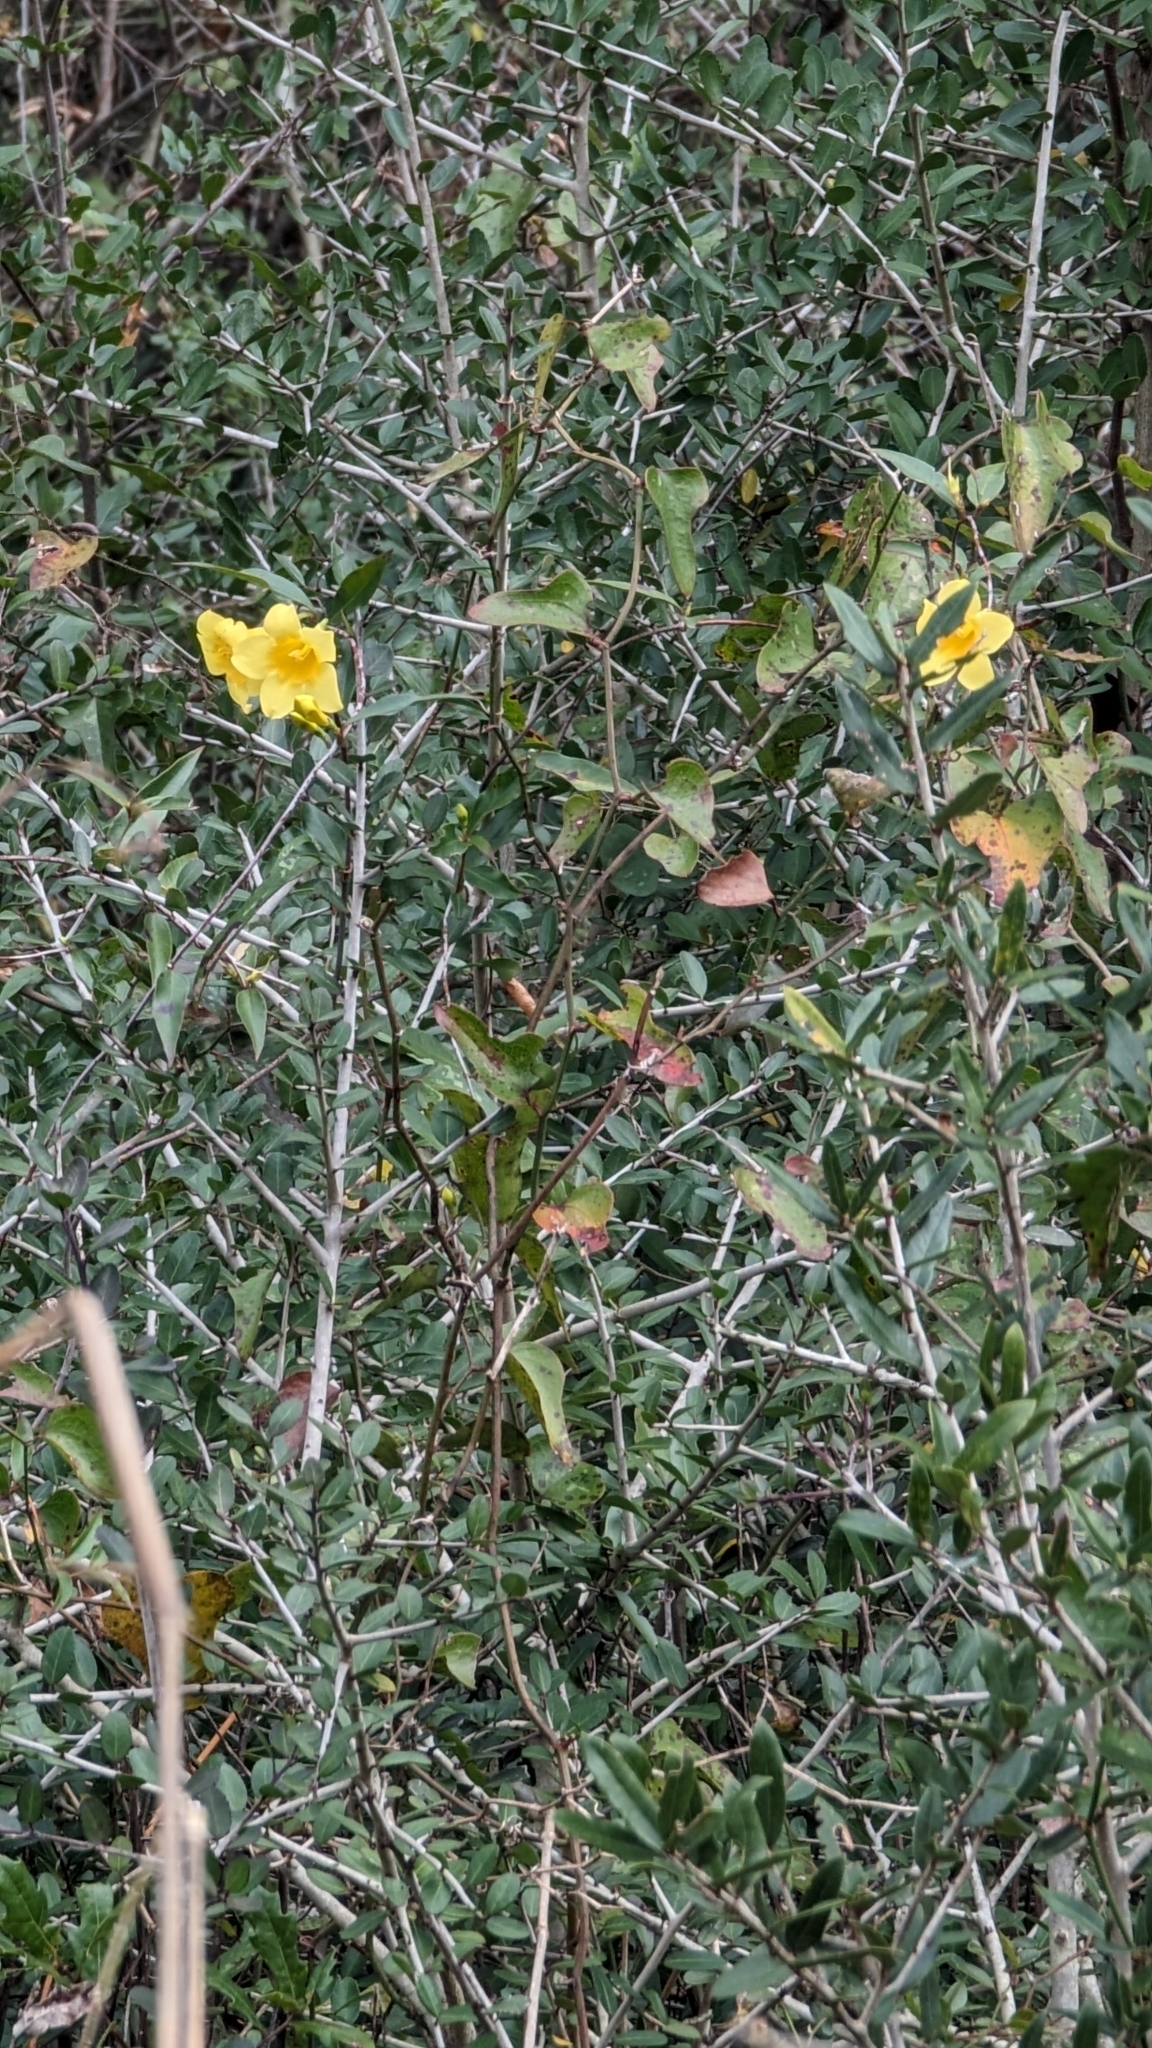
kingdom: Plantae
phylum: Tracheophyta
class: Magnoliopsida
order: Gentianales
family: Gelsemiaceae
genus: Gelsemium
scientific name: Gelsemium sempervirens
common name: Carolina-jasmine
